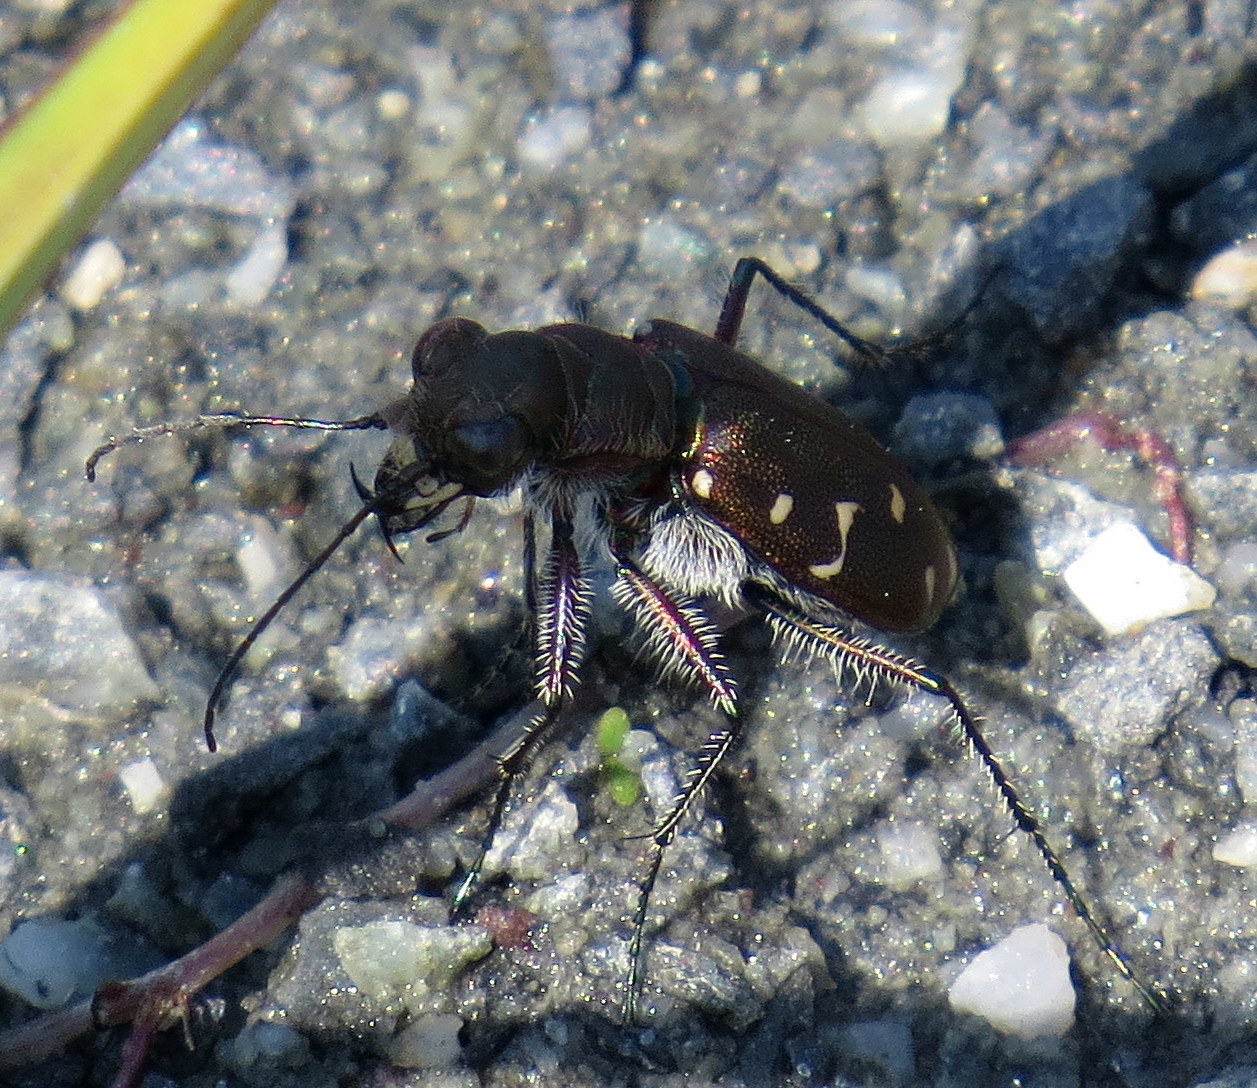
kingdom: Animalia
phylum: Arthropoda
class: Insecta
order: Coleoptera
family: Carabidae
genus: Cicindela
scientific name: Cicindela duodecimguttata
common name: Twelve-spotted tiger beetle
